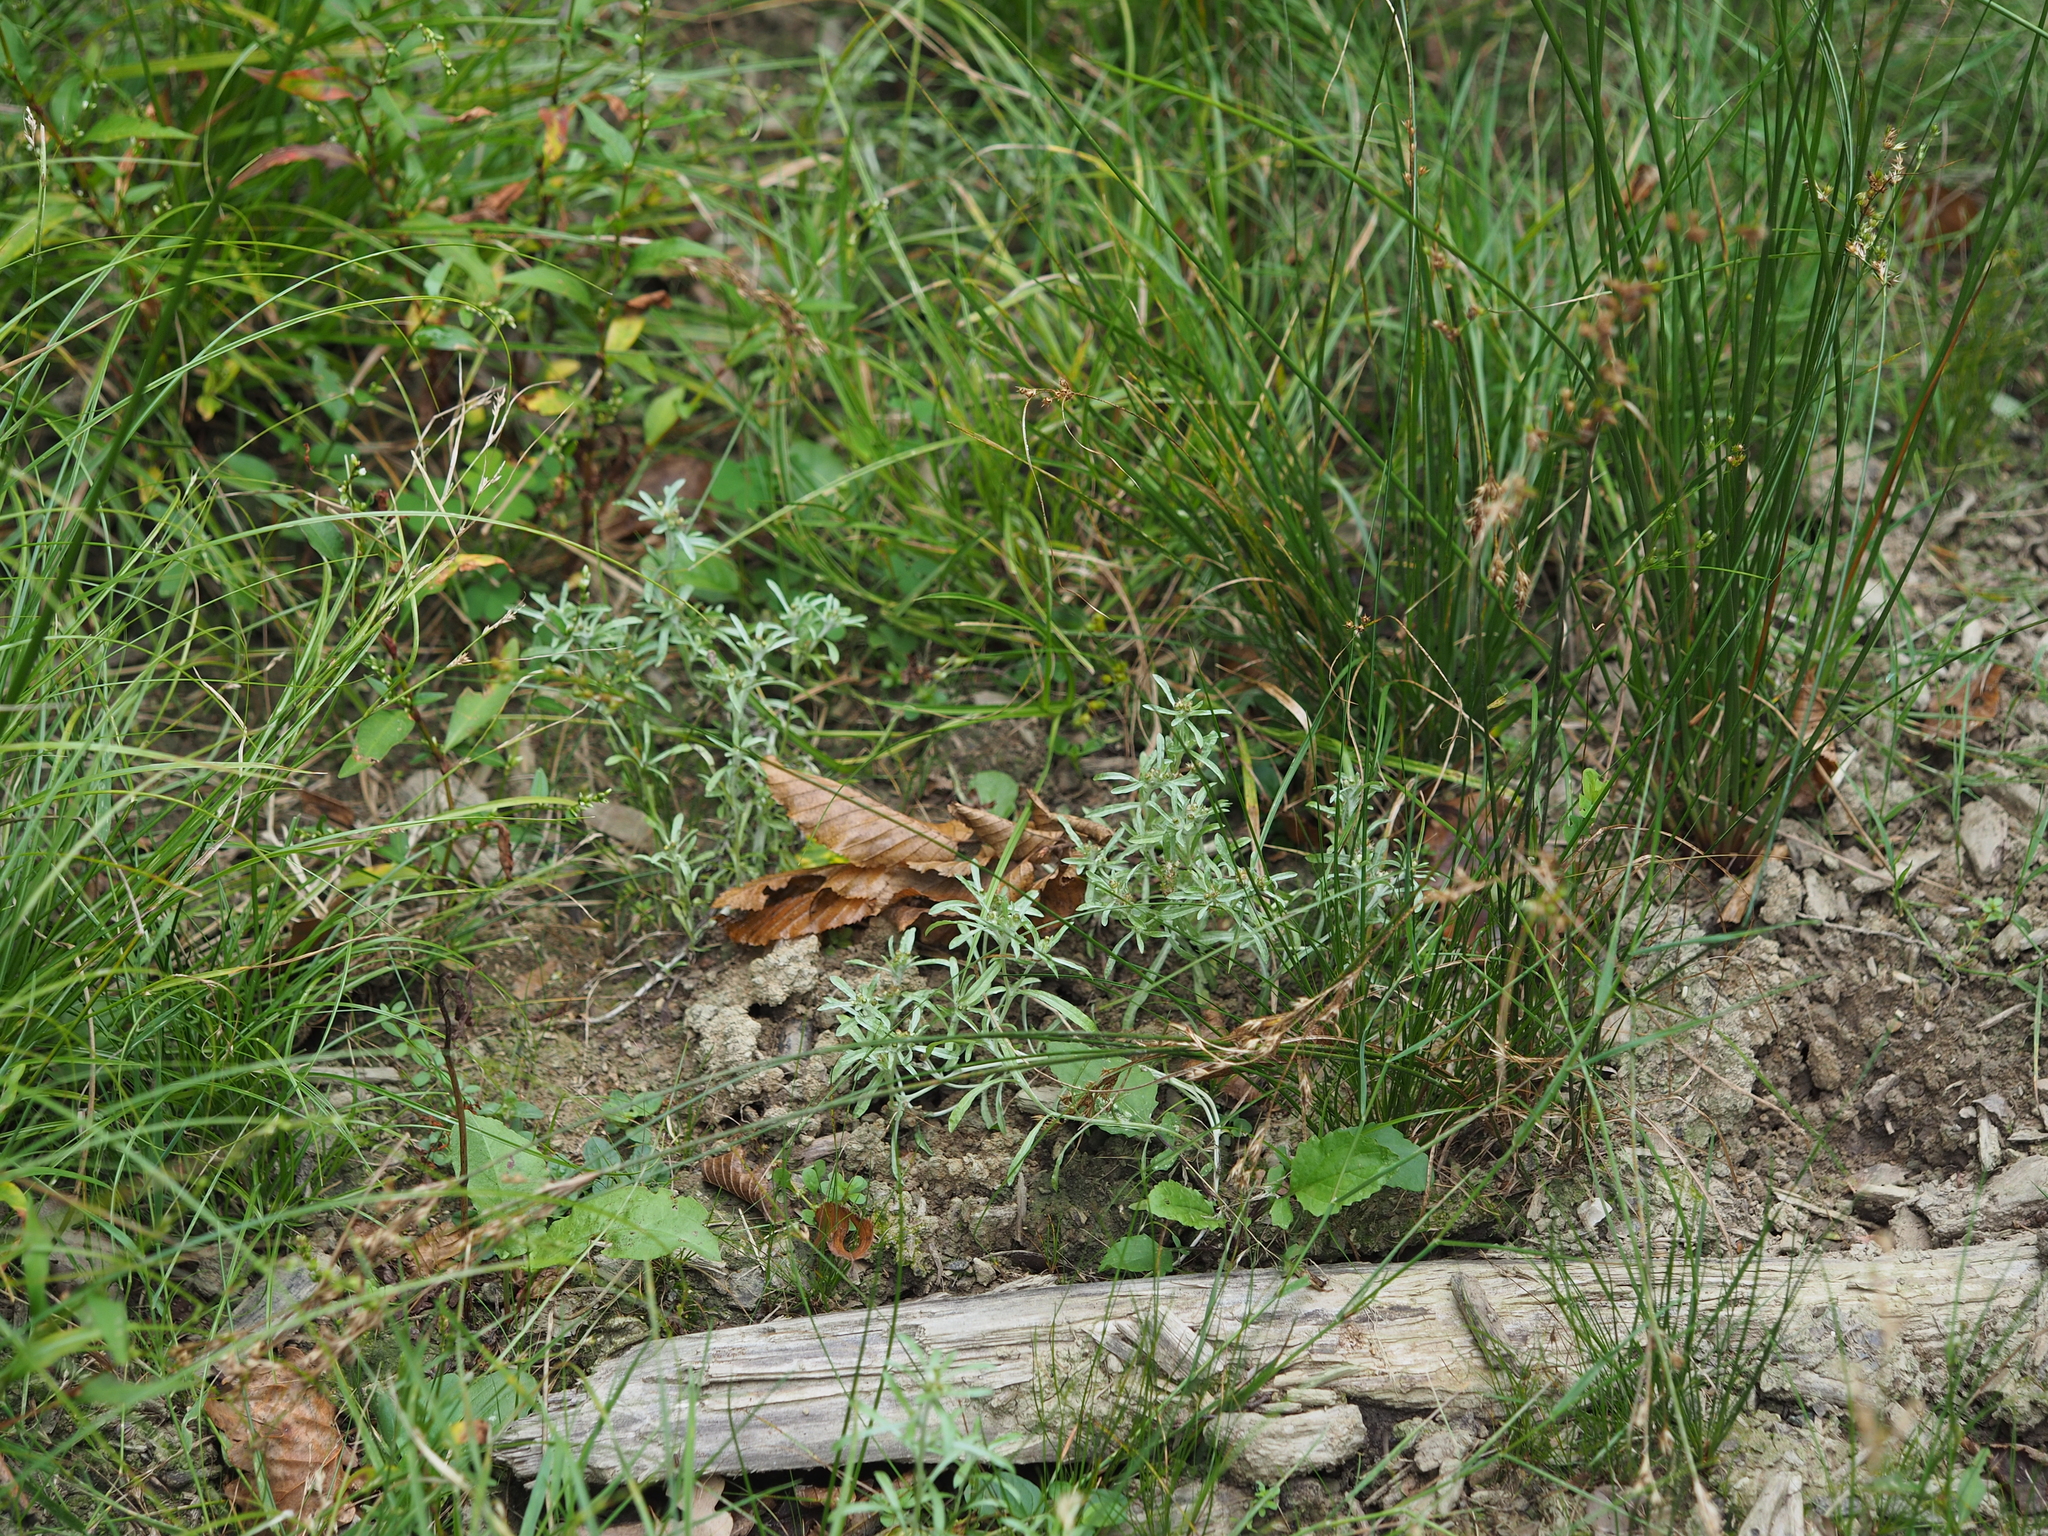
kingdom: Plantae
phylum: Tracheophyta
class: Magnoliopsida
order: Asterales
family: Asteraceae
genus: Gnaphalium
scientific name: Gnaphalium uliginosum
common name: Marsh cudweed
